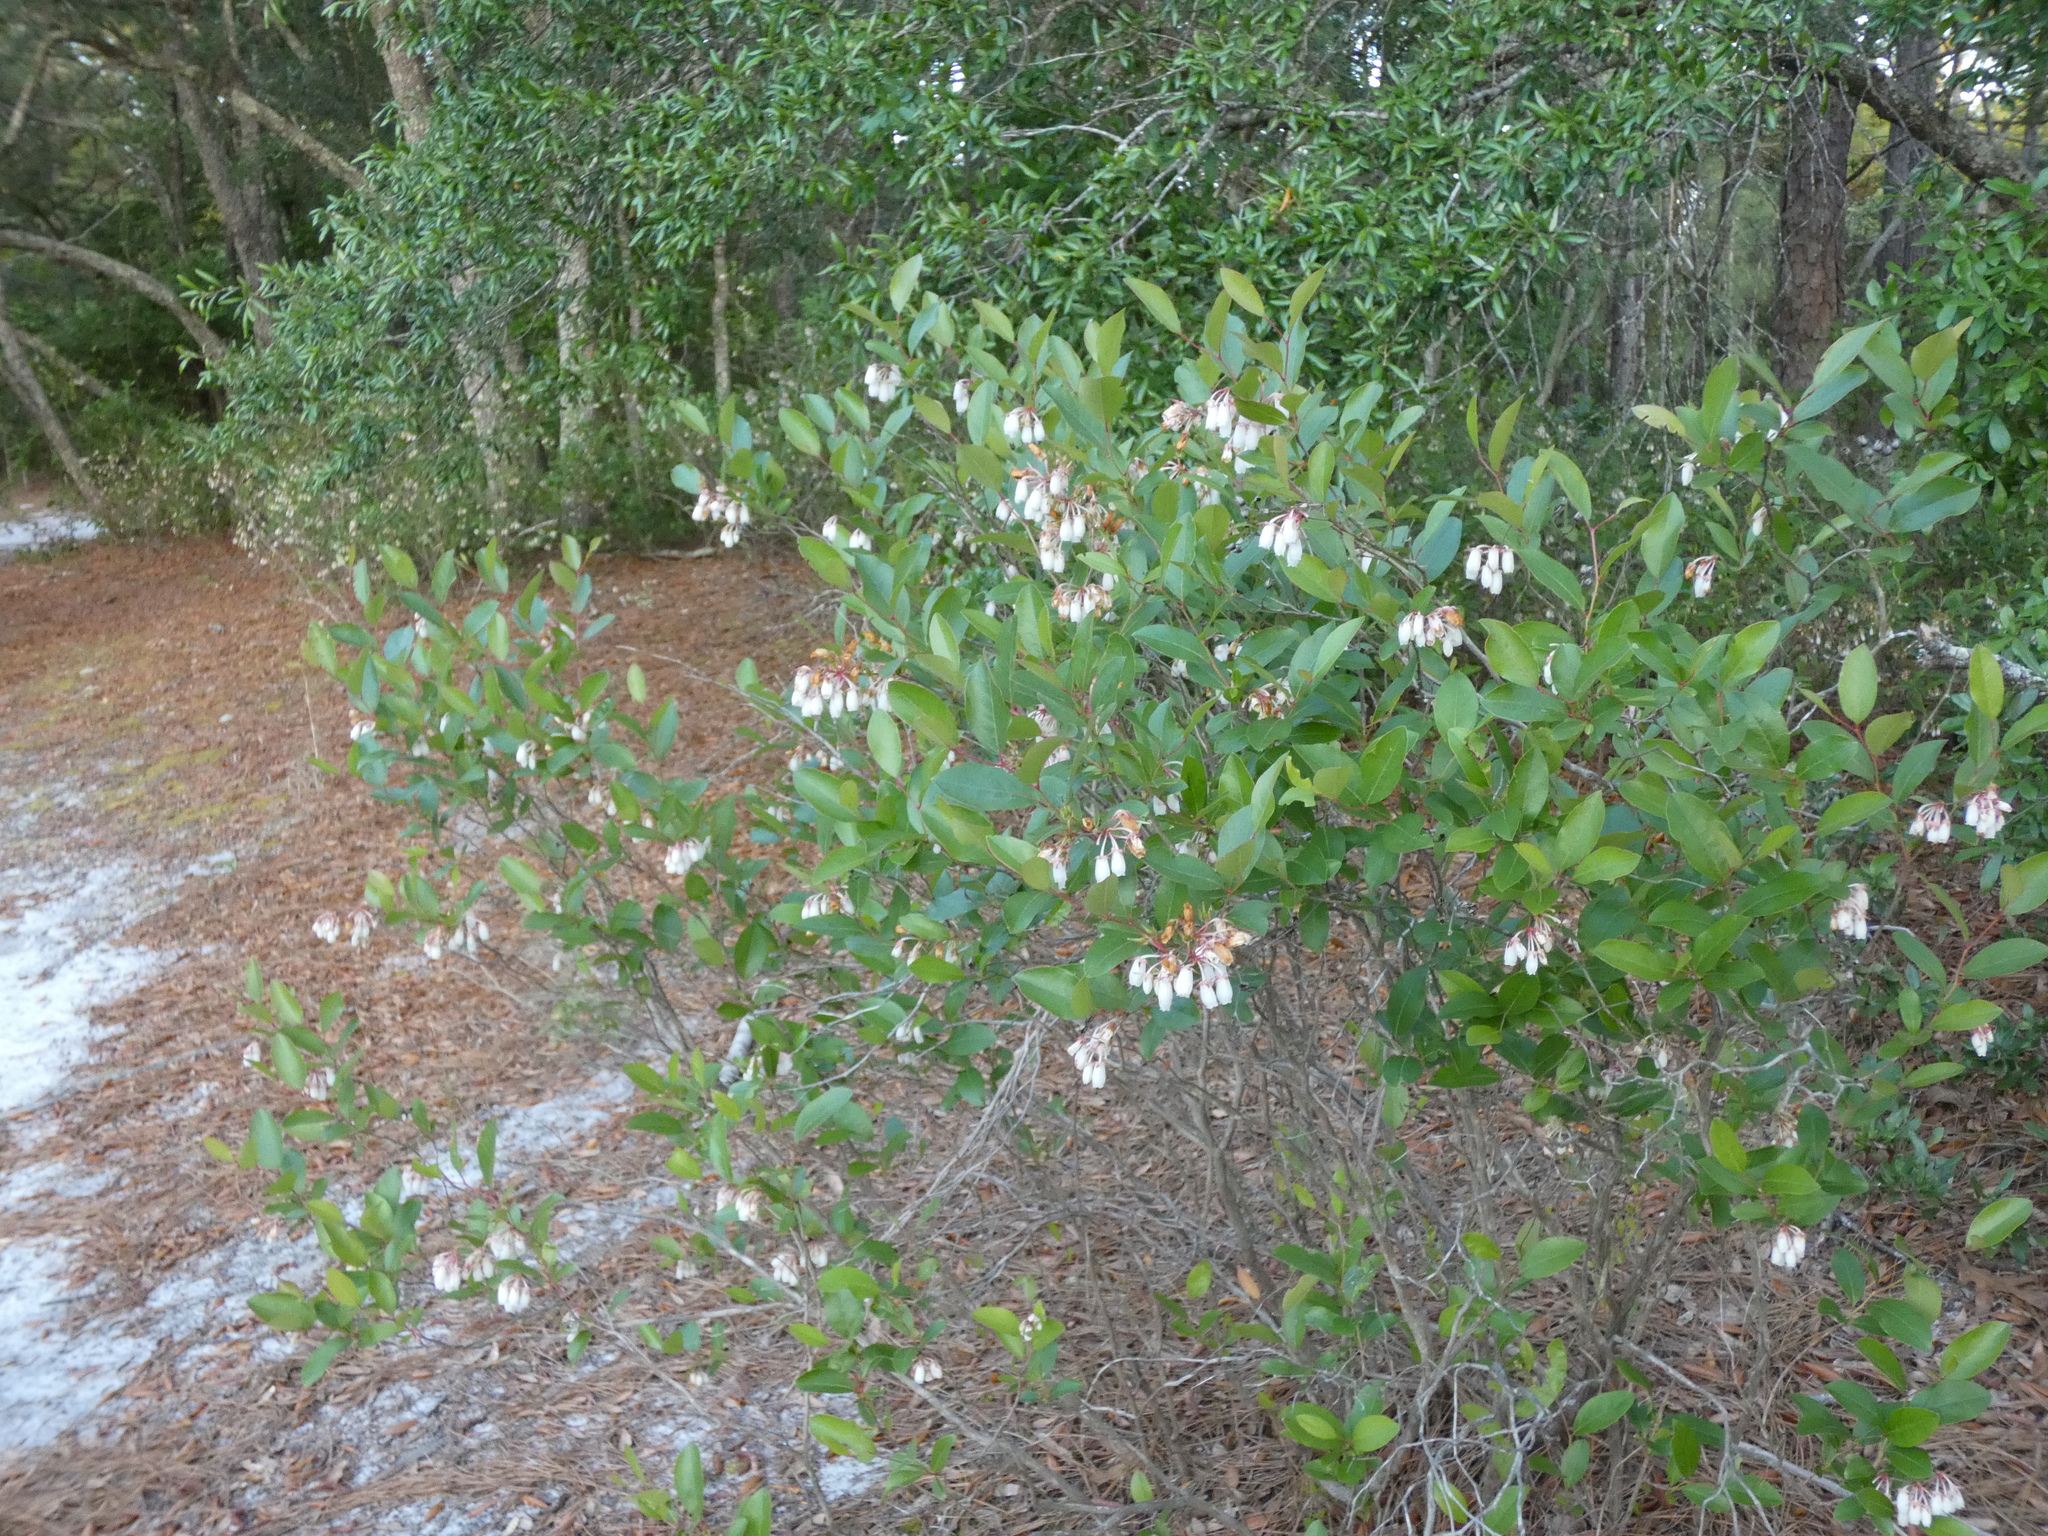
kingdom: Plantae
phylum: Tracheophyta
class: Magnoliopsida
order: Ericales
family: Ericaceae
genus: Lyonia
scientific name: Lyonia mariana
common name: Staggerbush
